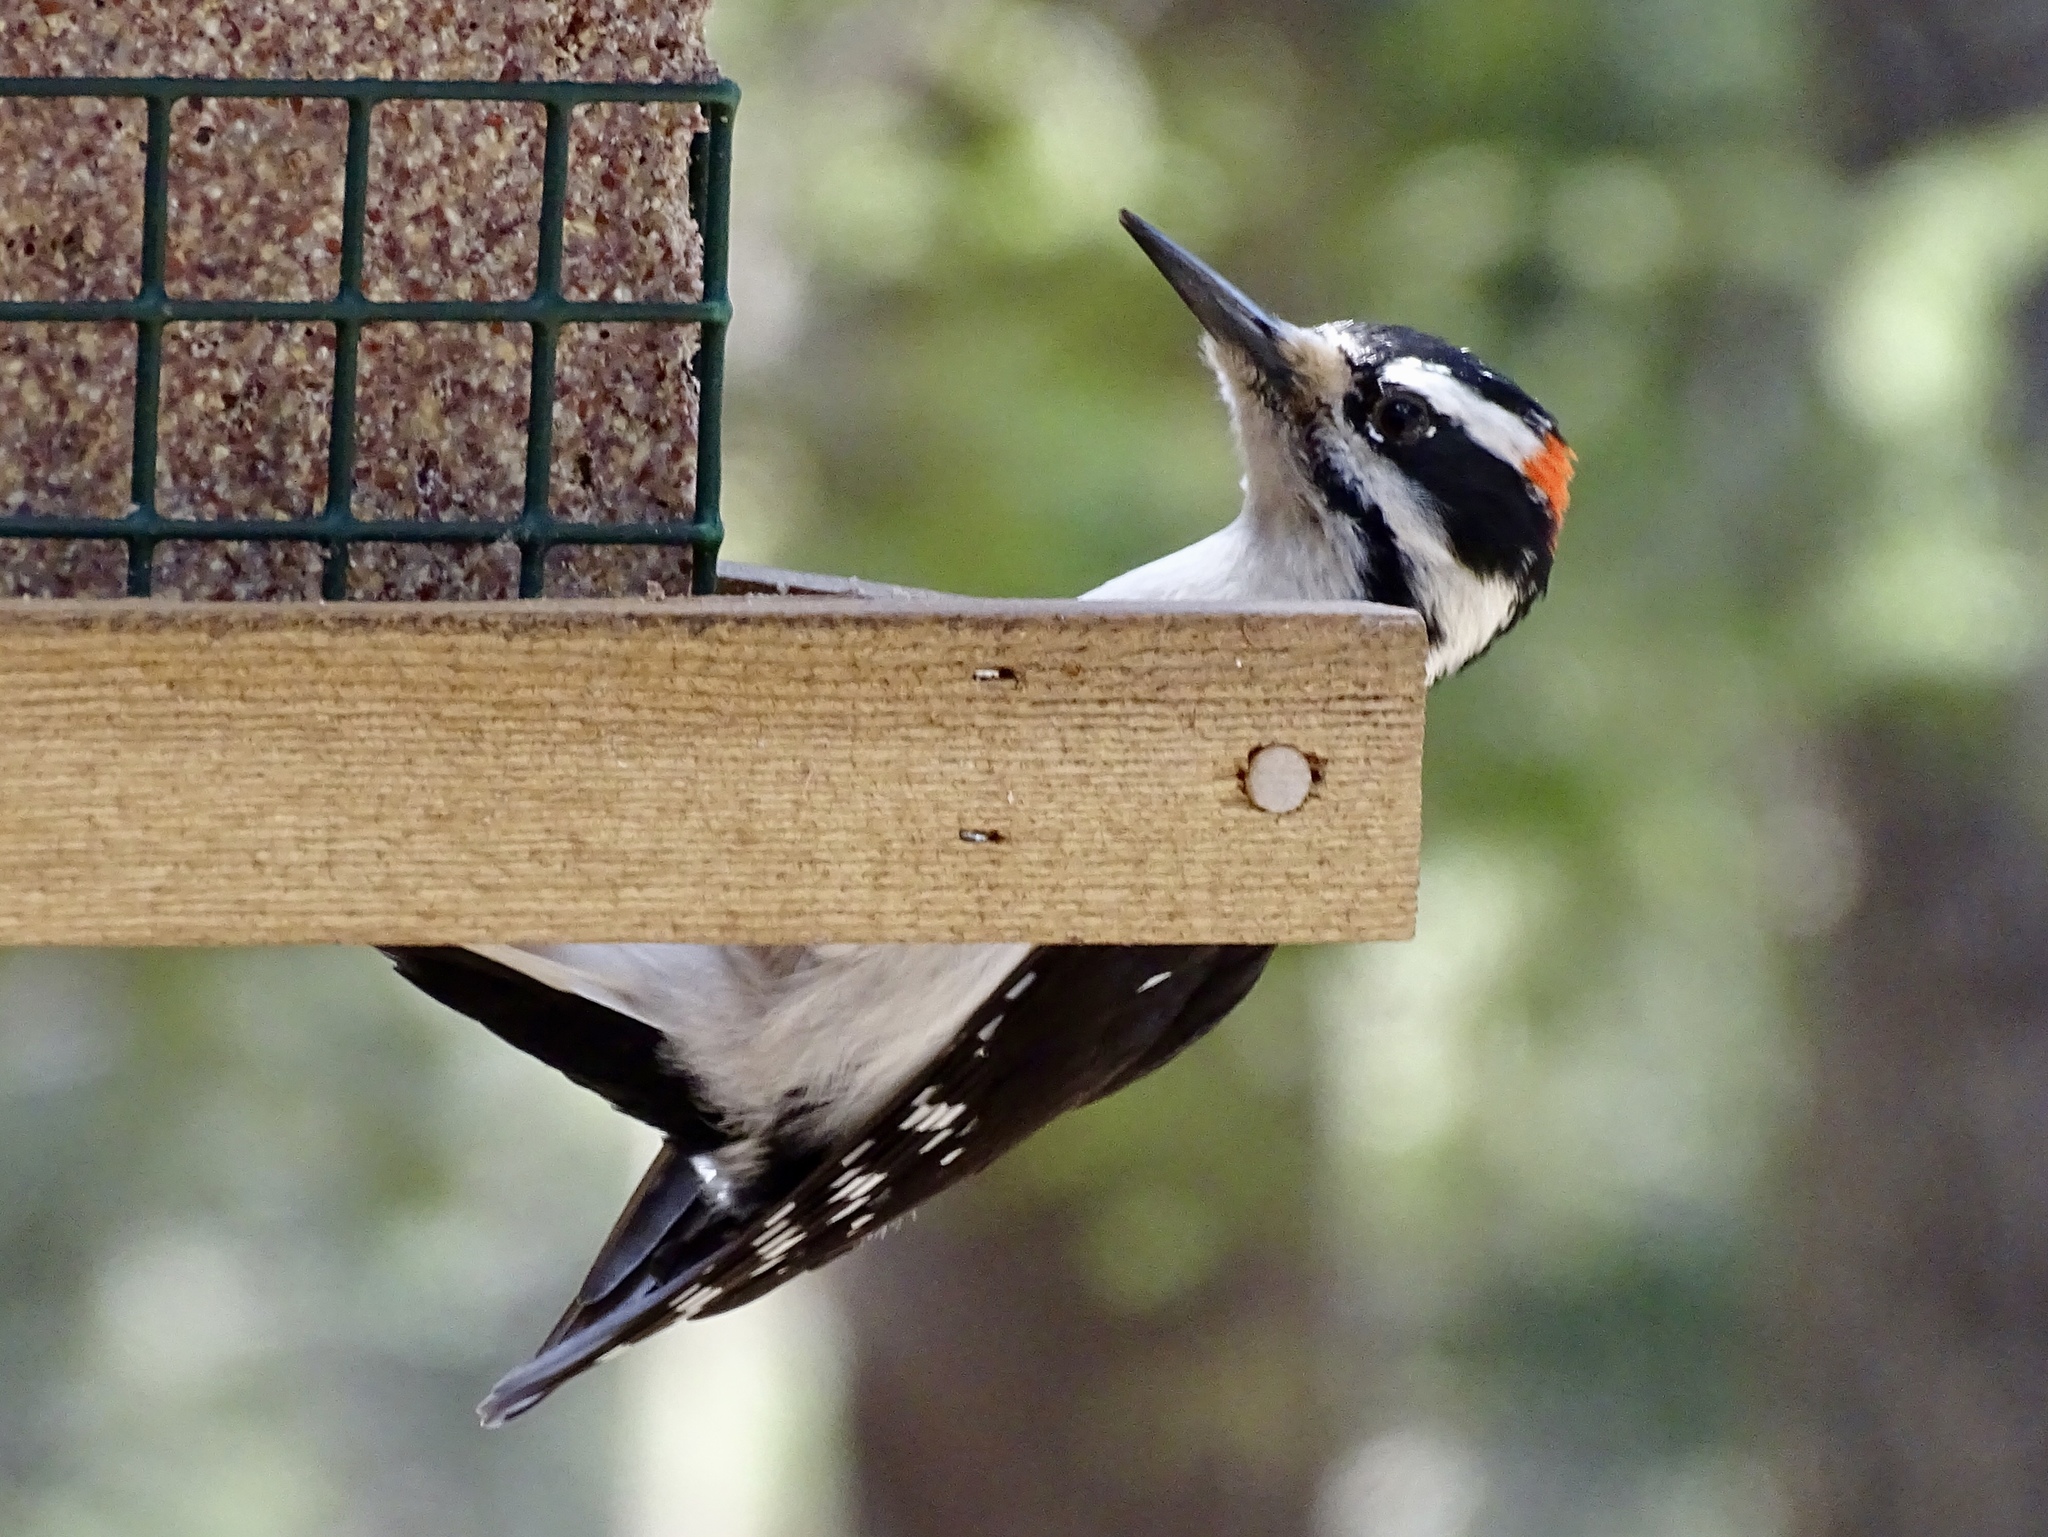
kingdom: Animalia
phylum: Chordata
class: Aves
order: Piciformes
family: Picidae
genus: Leuconotopicus
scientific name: Leuconotopicus villosus
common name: Hairy woodpecker
